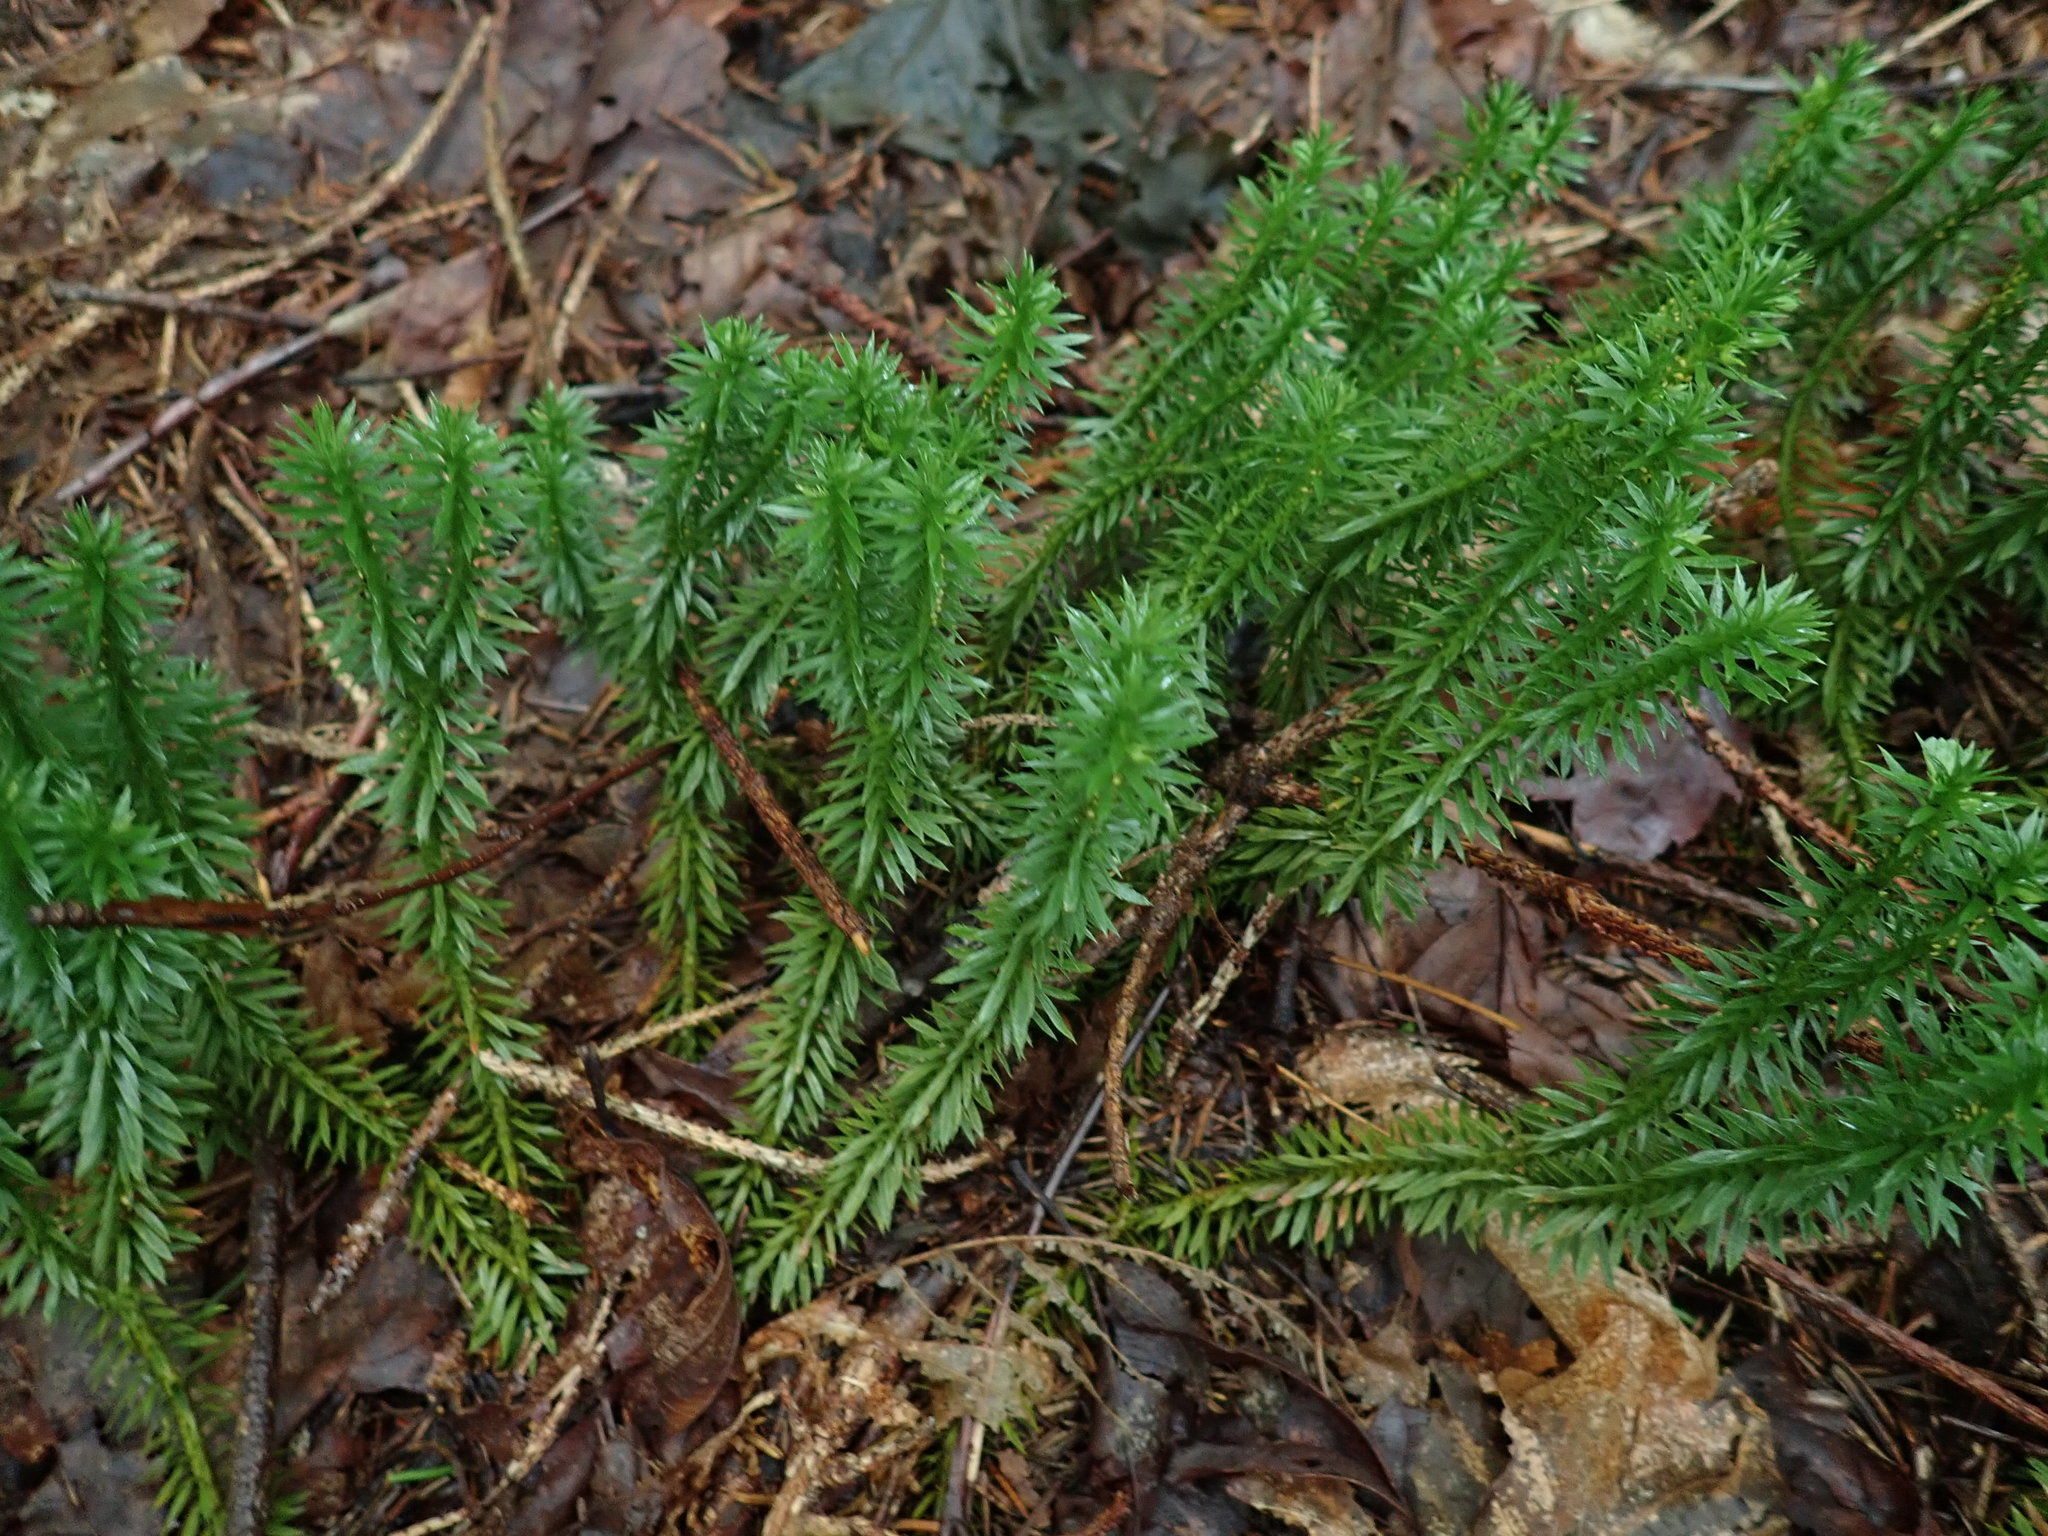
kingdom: Plantae
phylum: Tracheophyta
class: Lycopodiopsida
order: Lycopodiales
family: Lycopodiaceae
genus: Huperzia
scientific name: Huperzia lucidula
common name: Shining clubmoss
